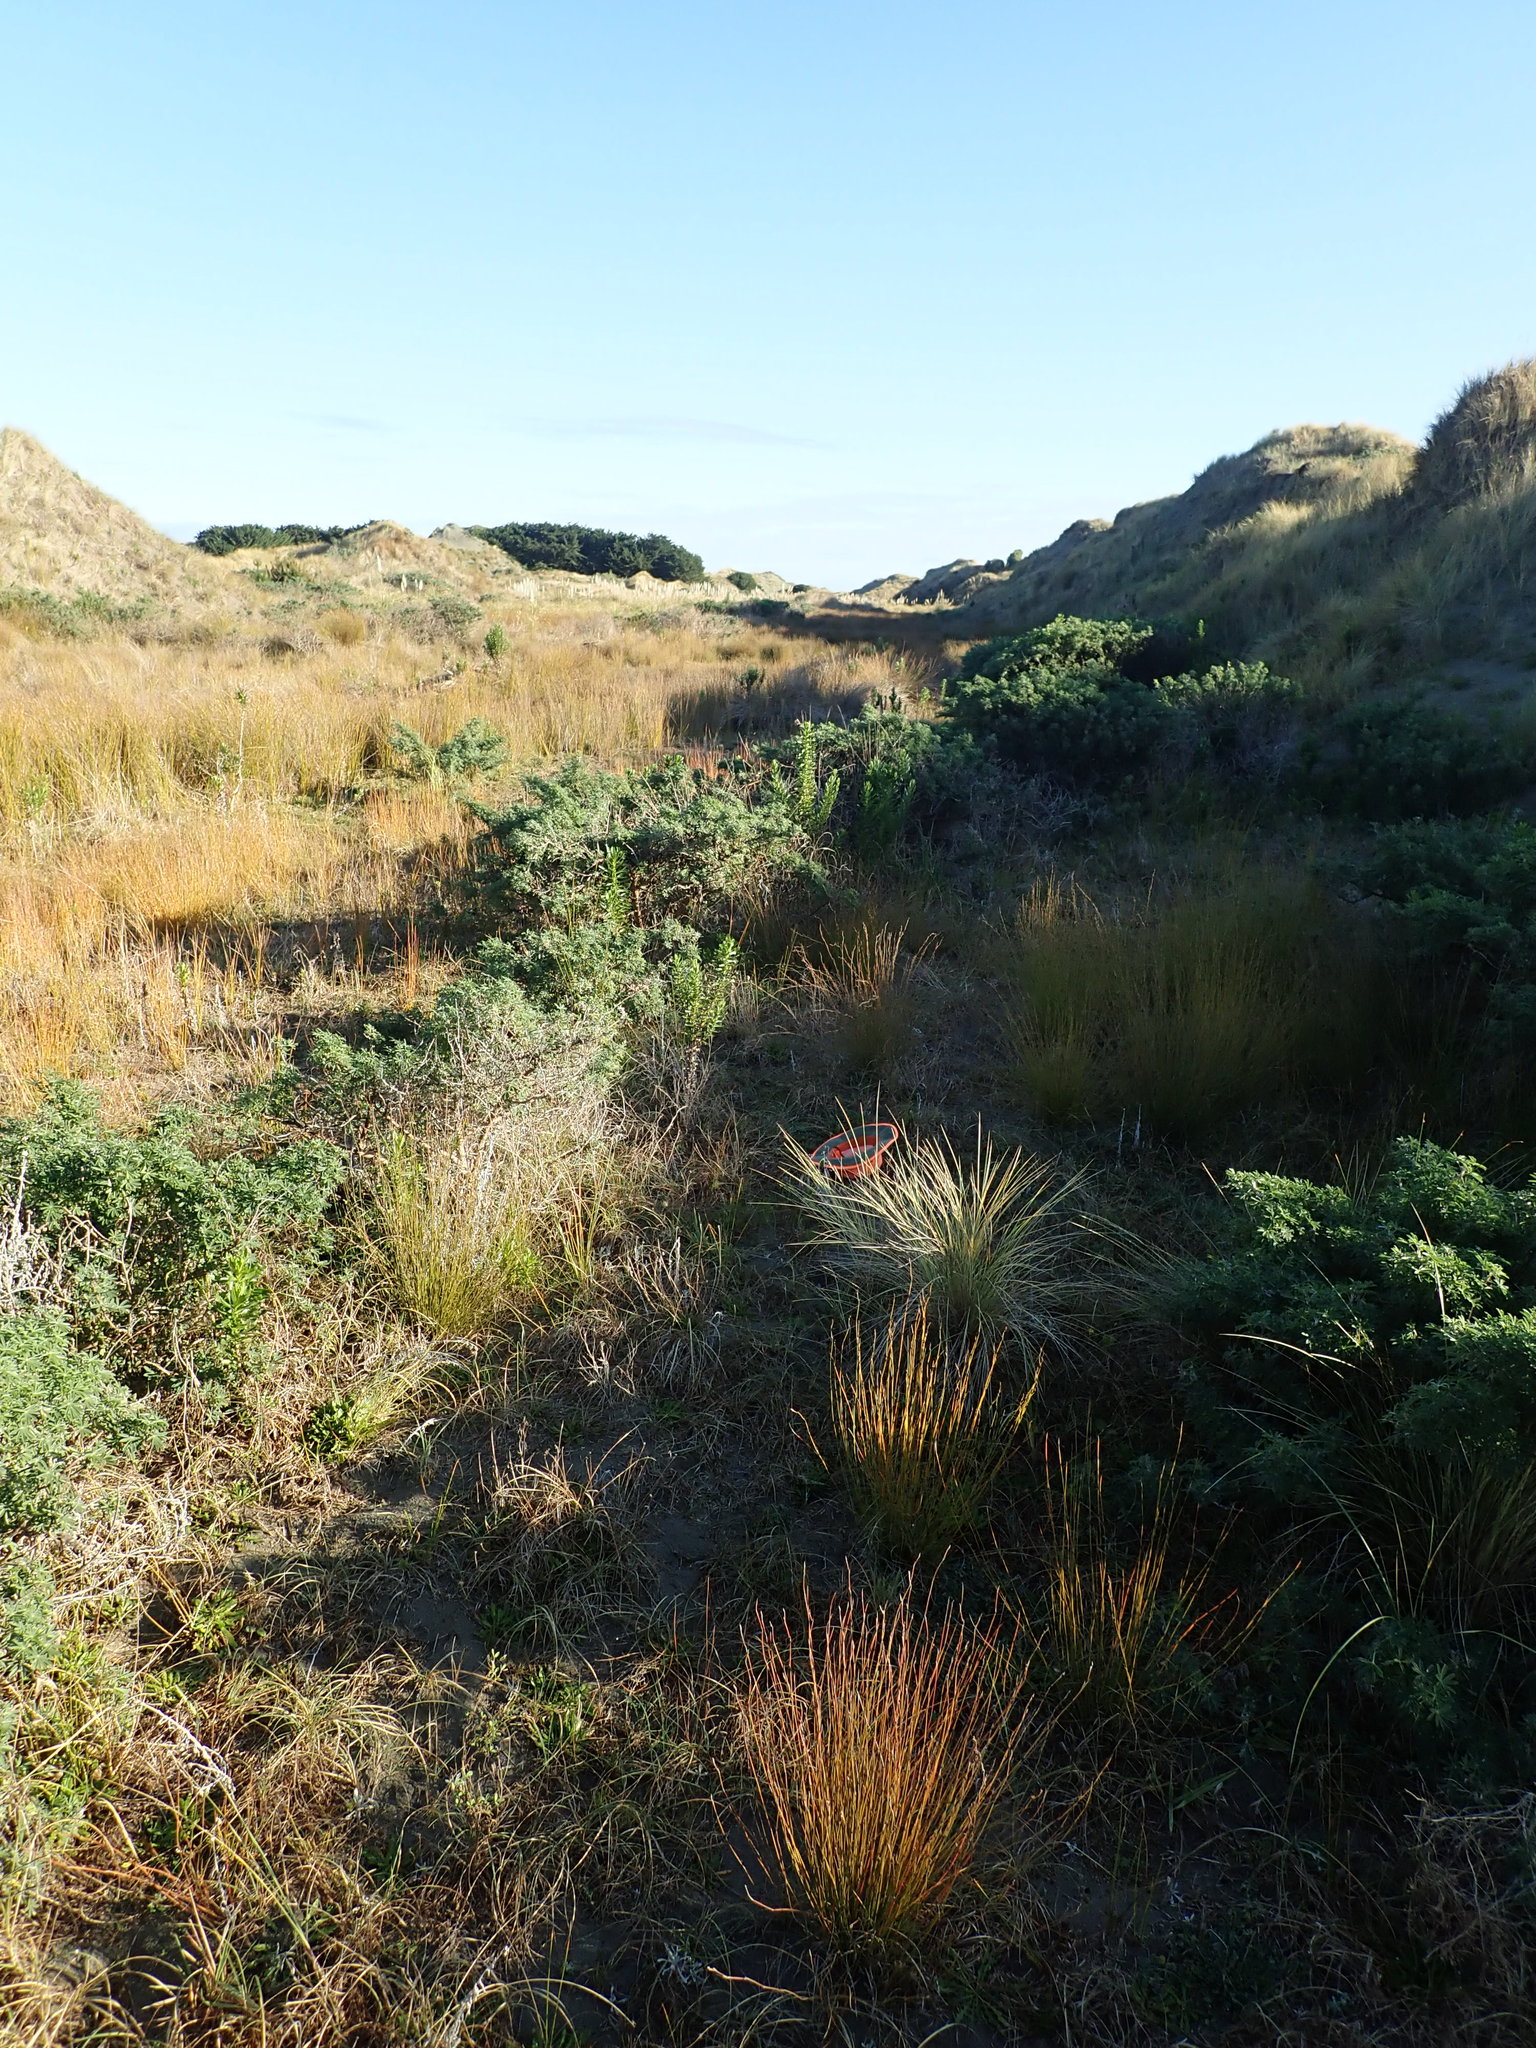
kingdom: Plantae
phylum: Tracheophyta
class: Magnoliopsida
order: Asterales
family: Asteraceae
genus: Helichrysum
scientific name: Helichrysum luteoalbum
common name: Daisy
